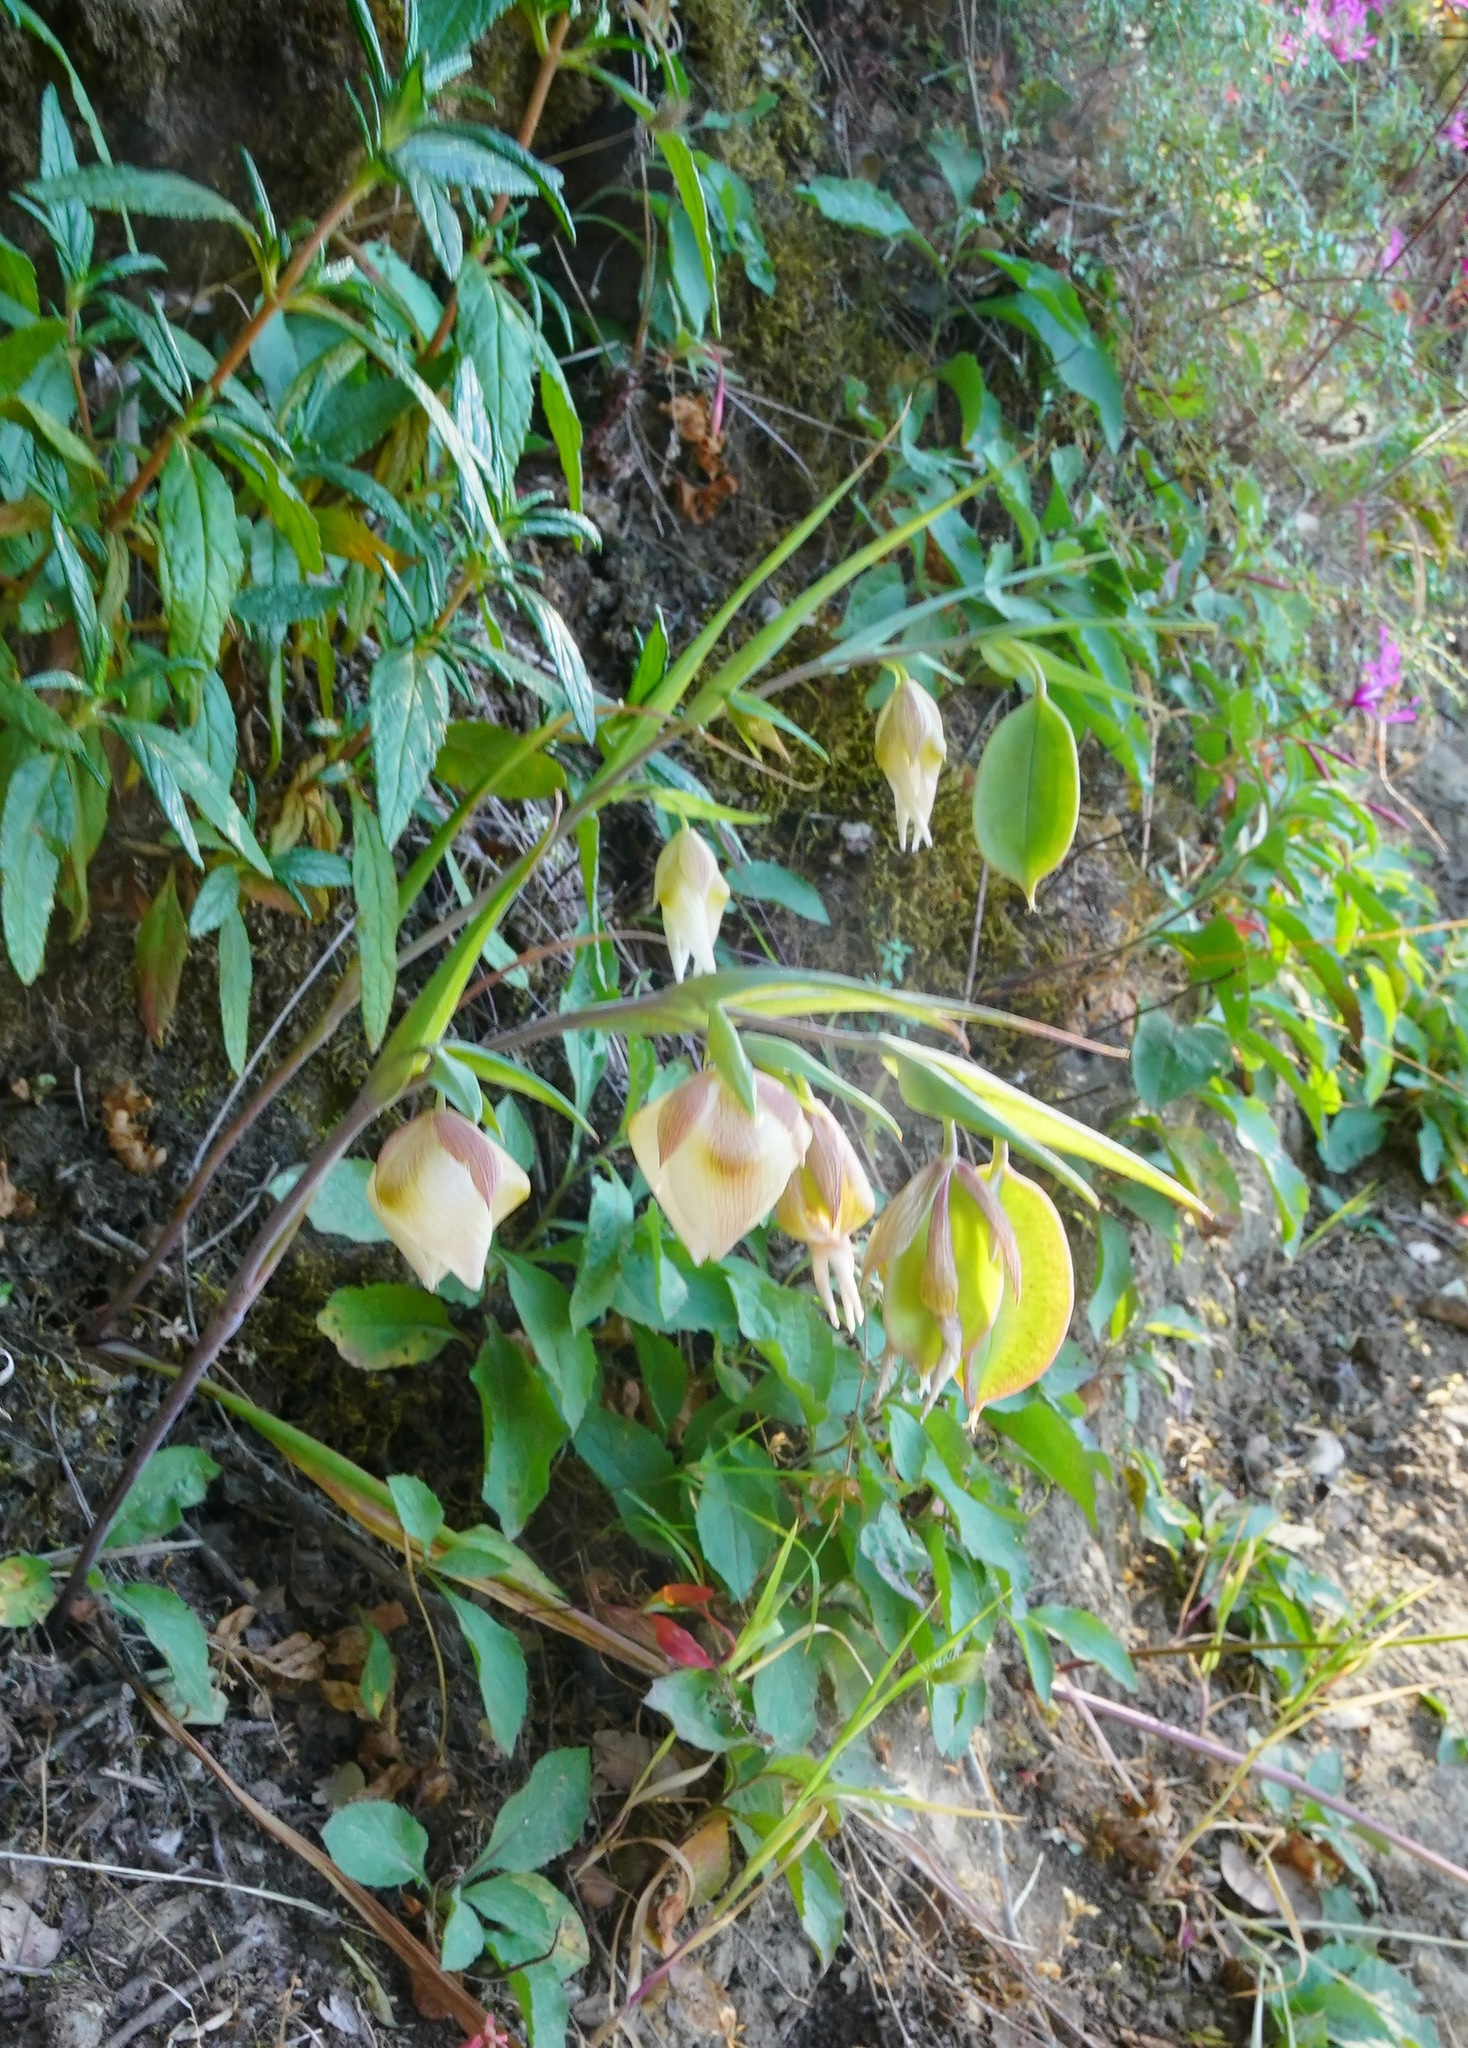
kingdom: Plantae
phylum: Tracheophyta
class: Liliopsida
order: Liliales
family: Liliaceae
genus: Calochortus
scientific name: Calochortus albus
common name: Fairy-lantern
